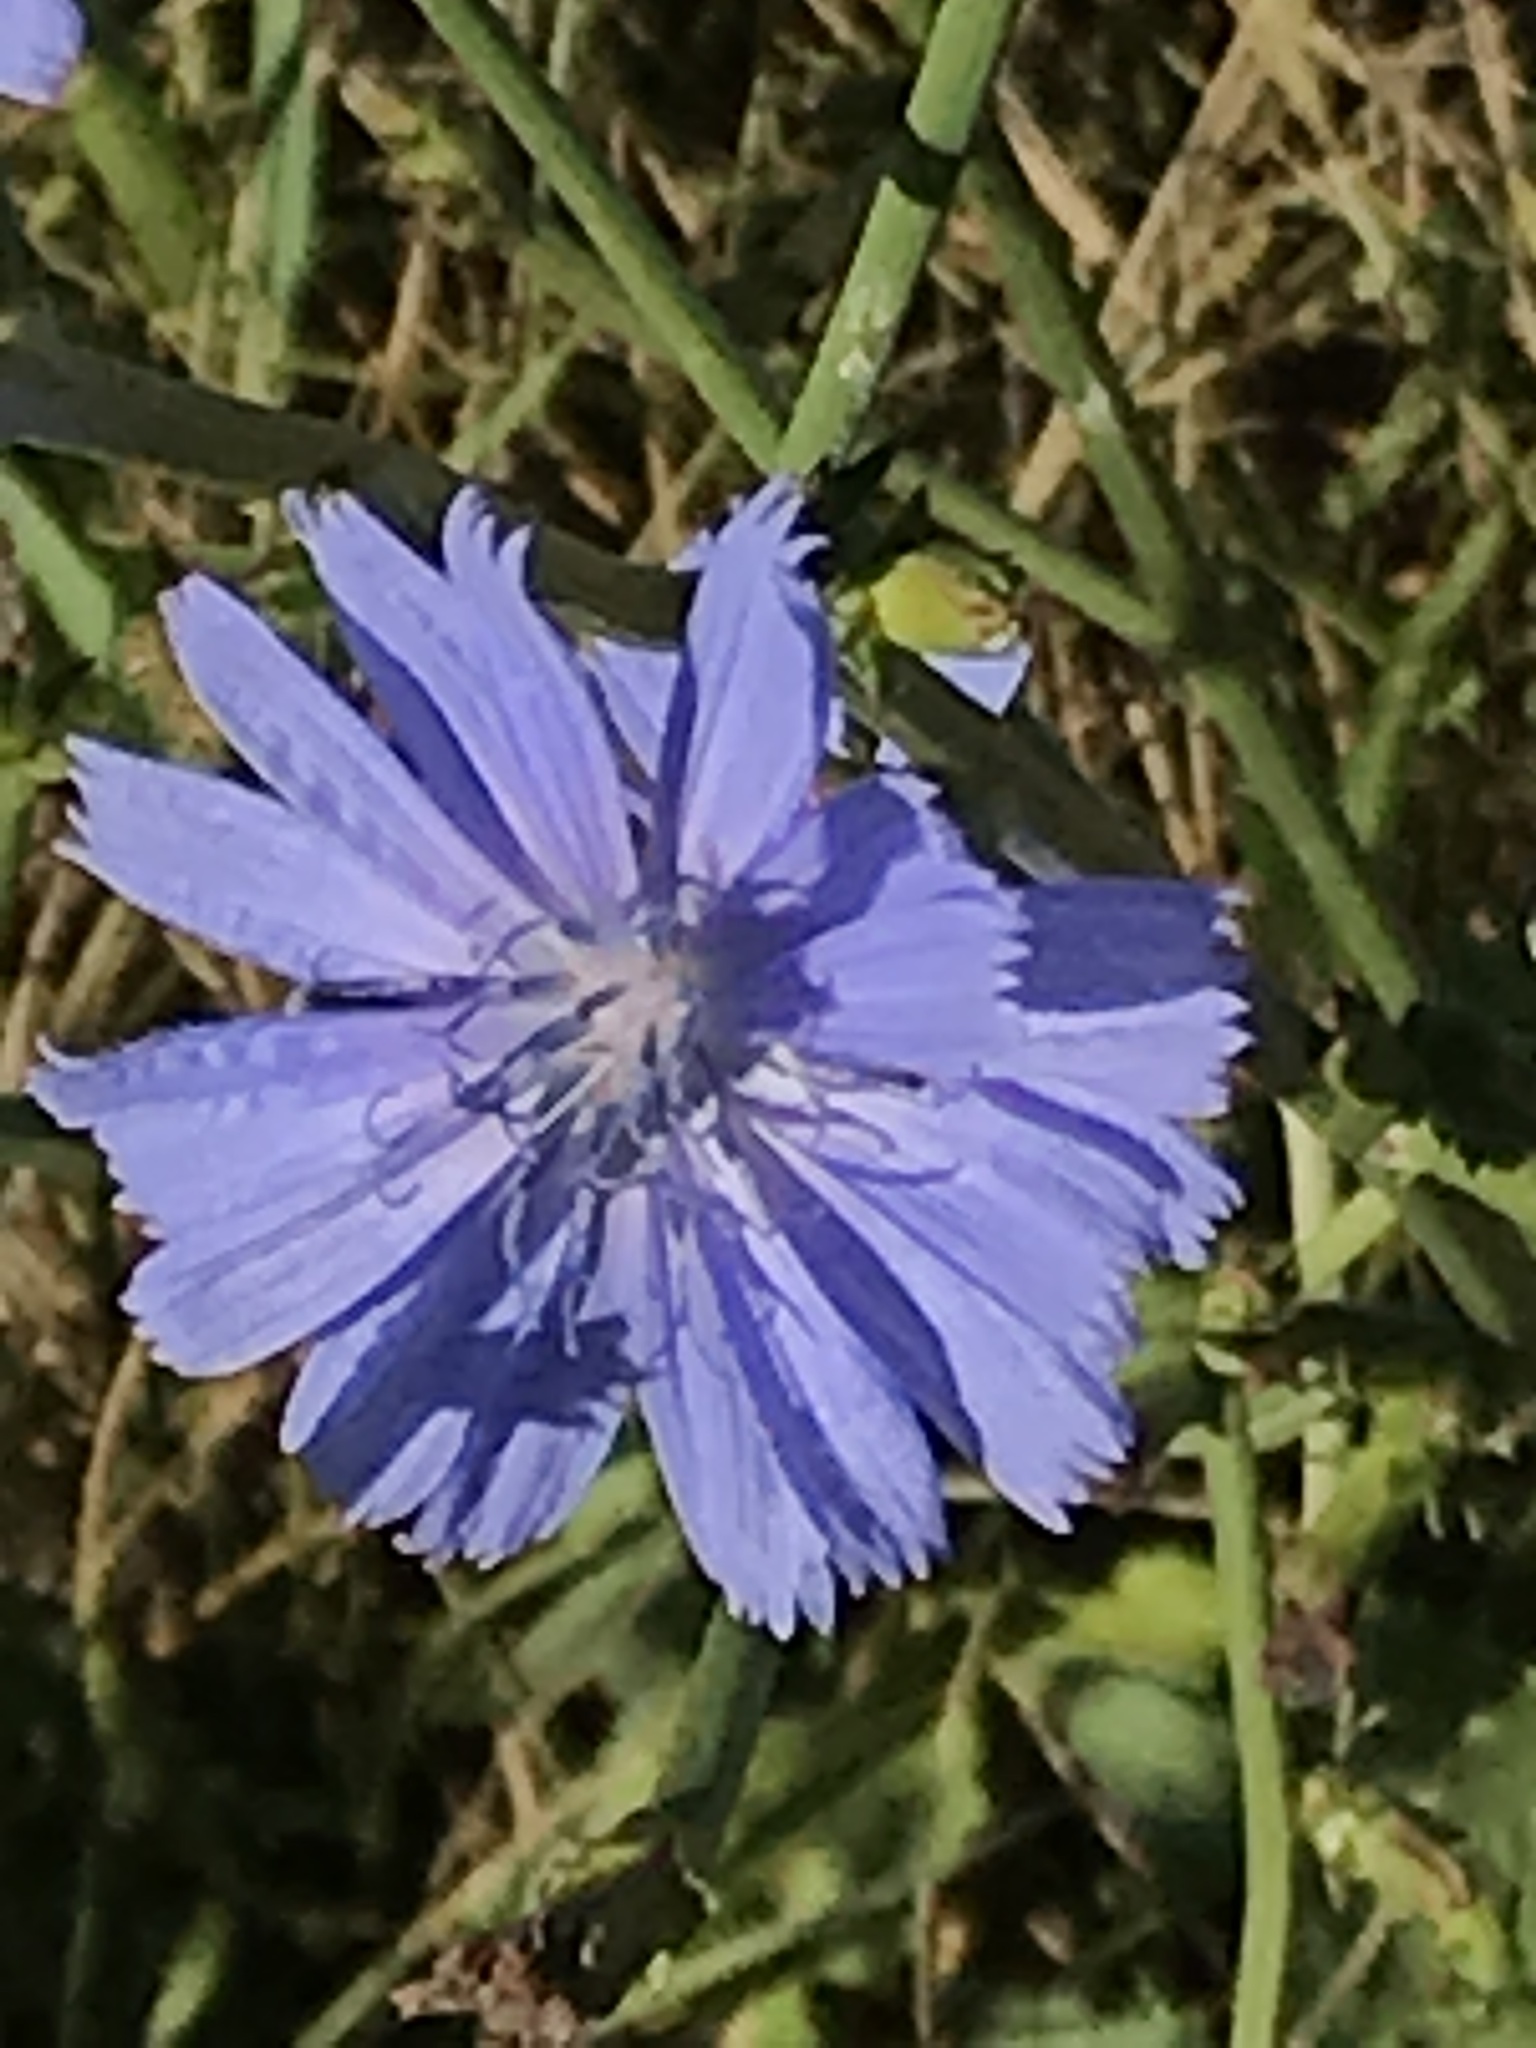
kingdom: Plantae
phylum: Tracheophyta
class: Magnoliopsida
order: Asterales
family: Asteraceae
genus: Cichorium
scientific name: Cichorium intybus
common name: Chicory
